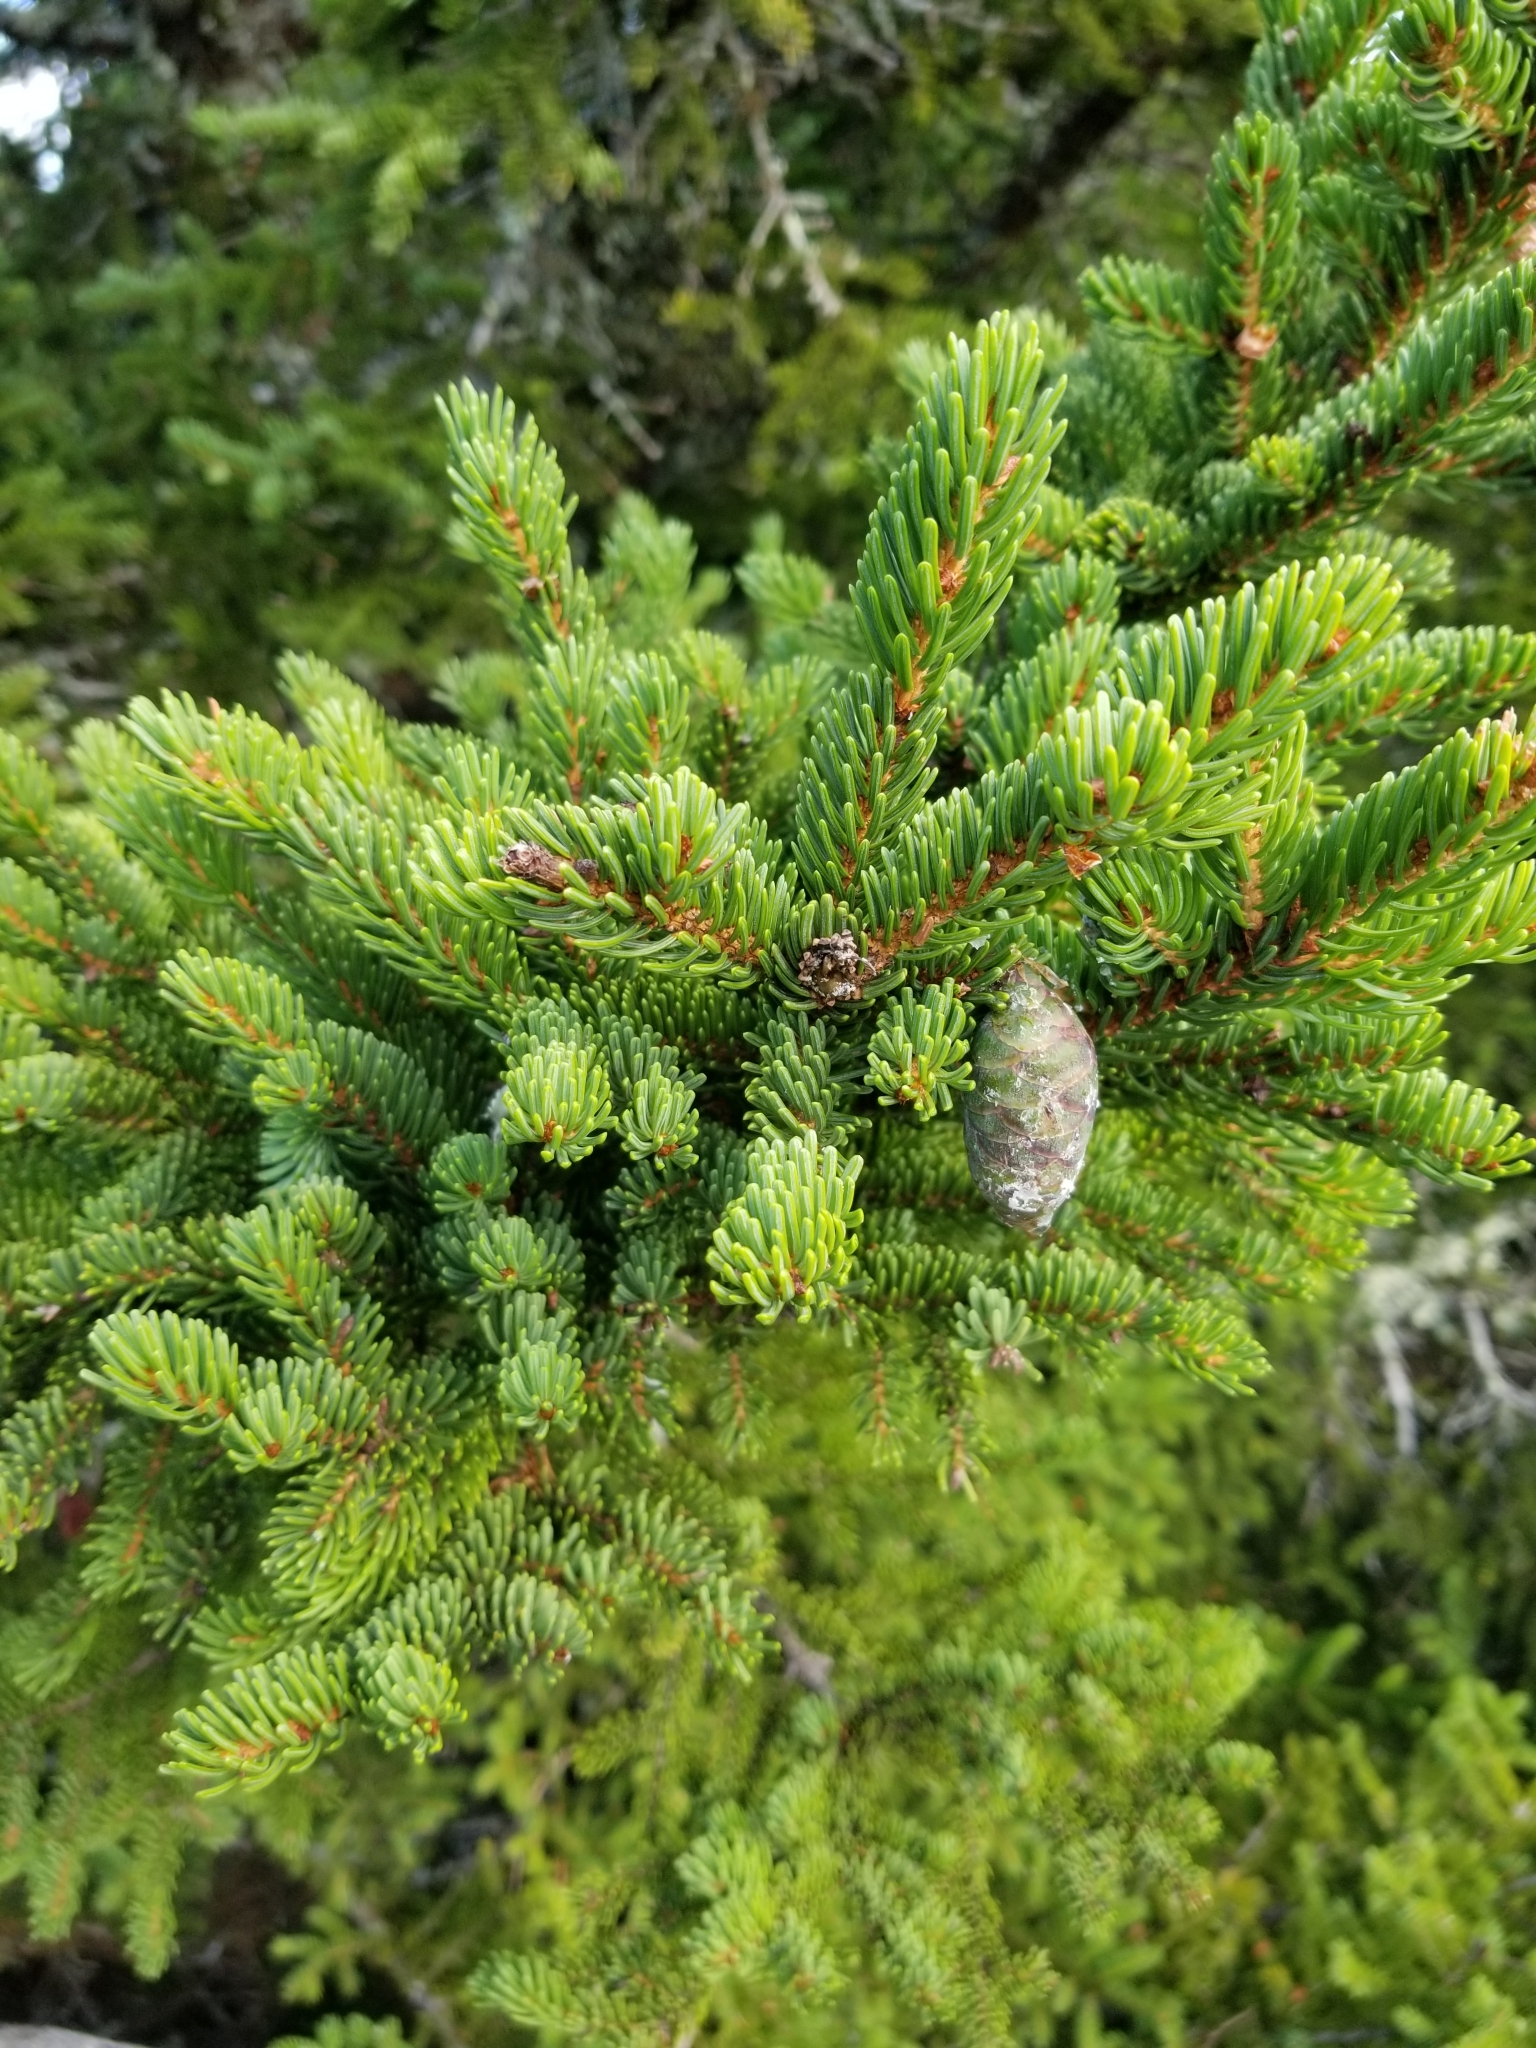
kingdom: Plantae
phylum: Tracheophyta
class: Pinopsida
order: Pinales
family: Pinaceae
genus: Picea
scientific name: Picea rubens
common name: Red spruce
